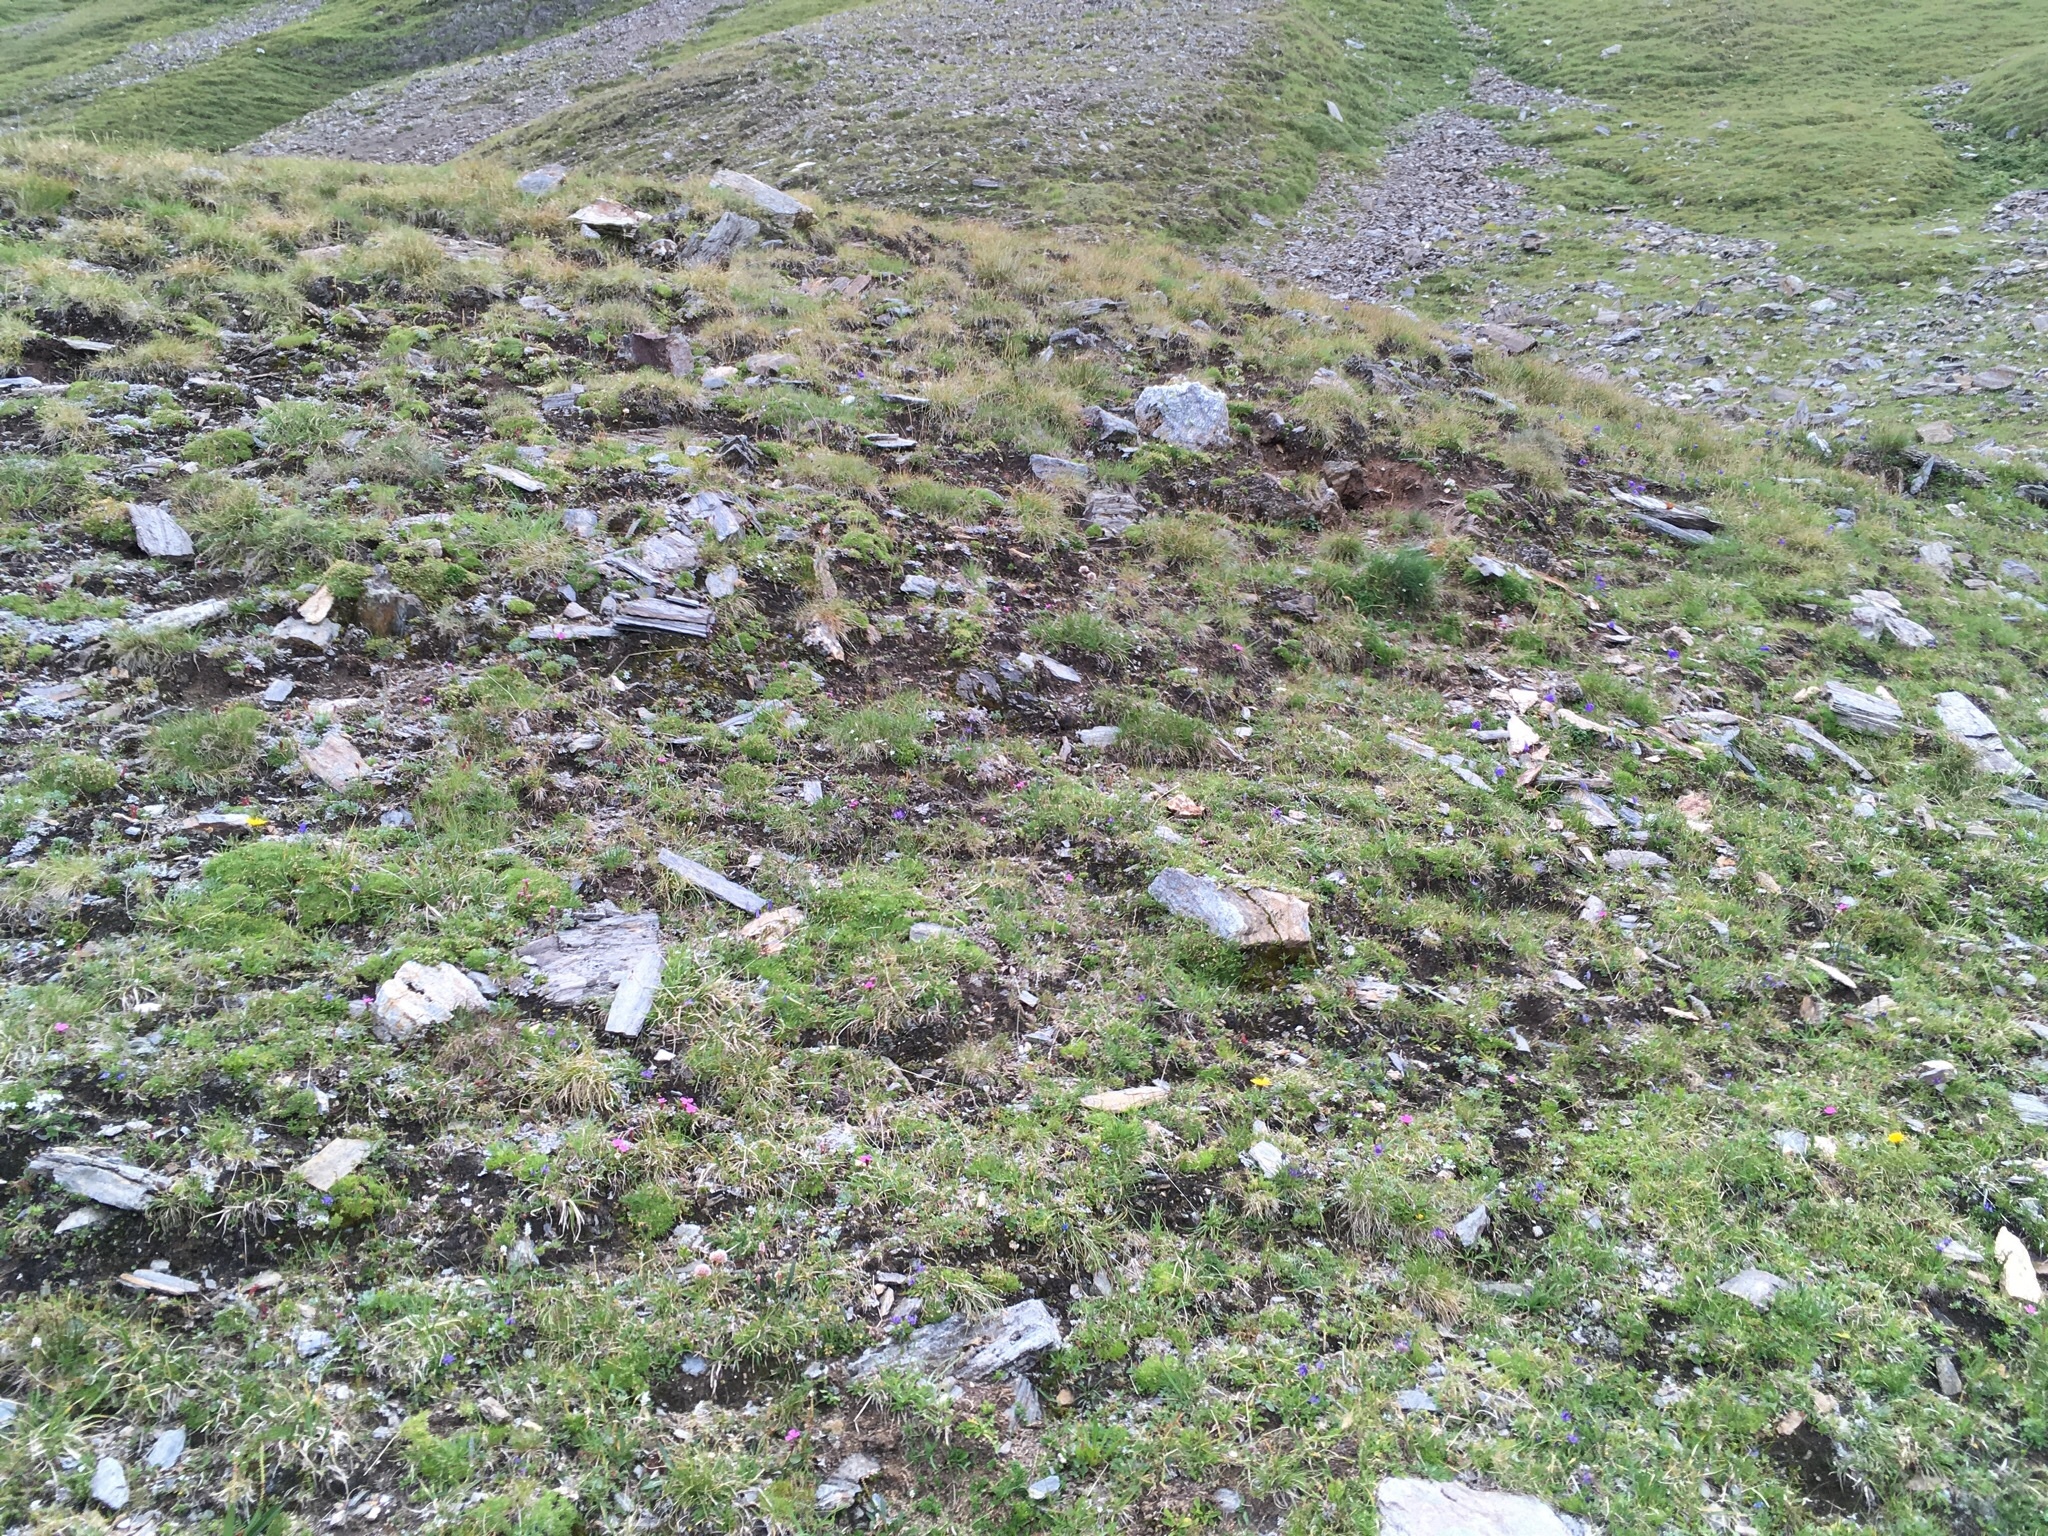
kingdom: Plantae
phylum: Tracheophyta
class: Magnoliopsida
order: Caryophyllales
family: Caryophyllaceae
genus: Dianthus
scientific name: Dianthus glacialis
